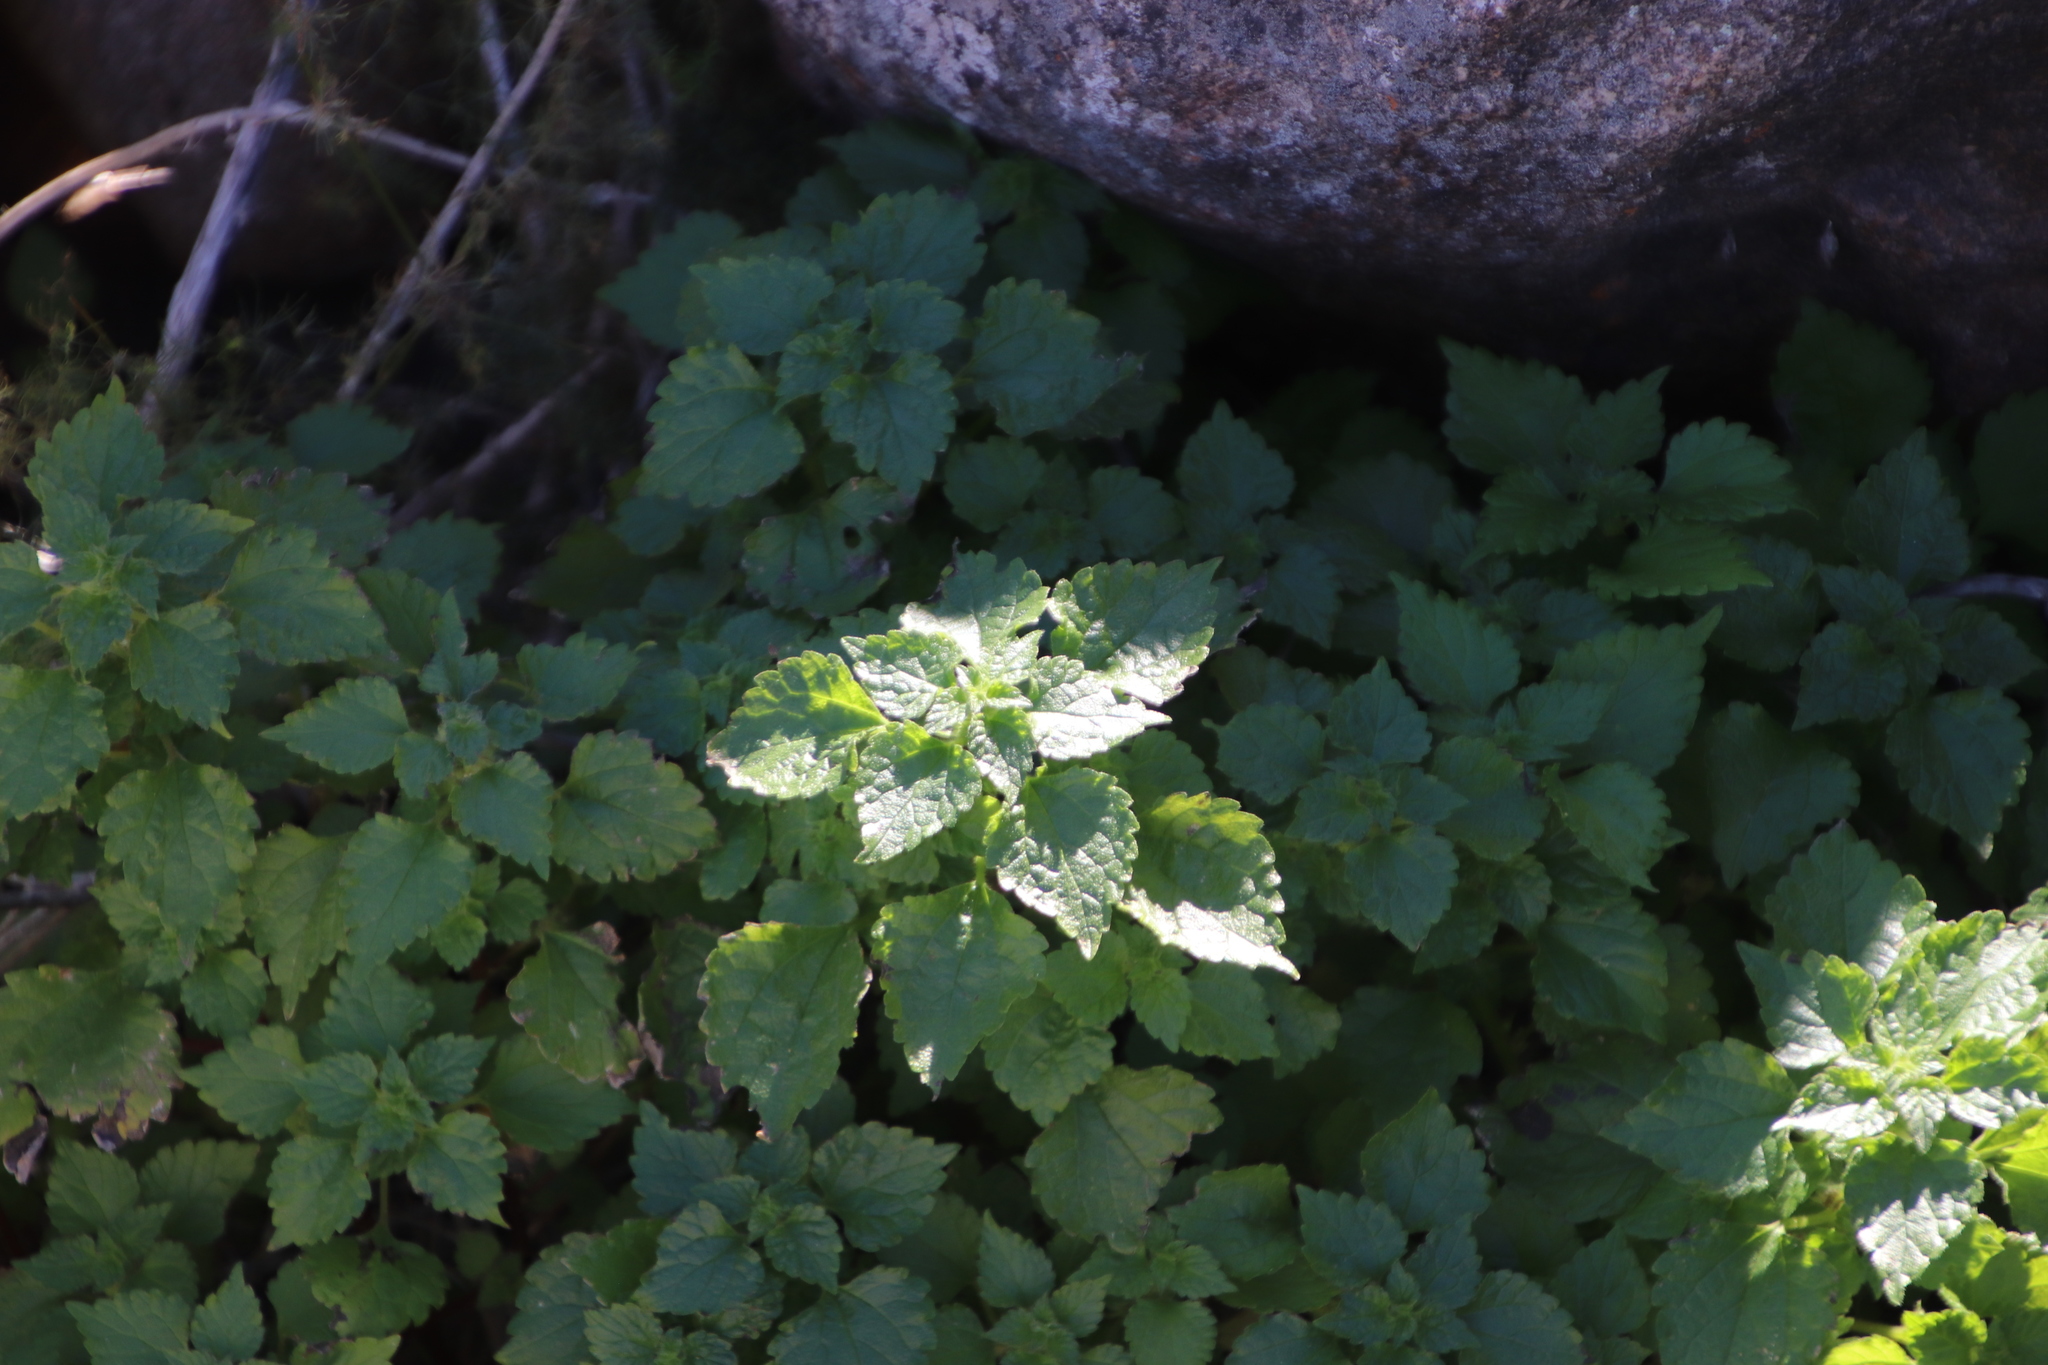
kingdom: Plantae
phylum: Tracheophyta
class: Magnoliopsida
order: Rosales
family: Urticaceae
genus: Didymodoxa
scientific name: Didymodoxa capensis
